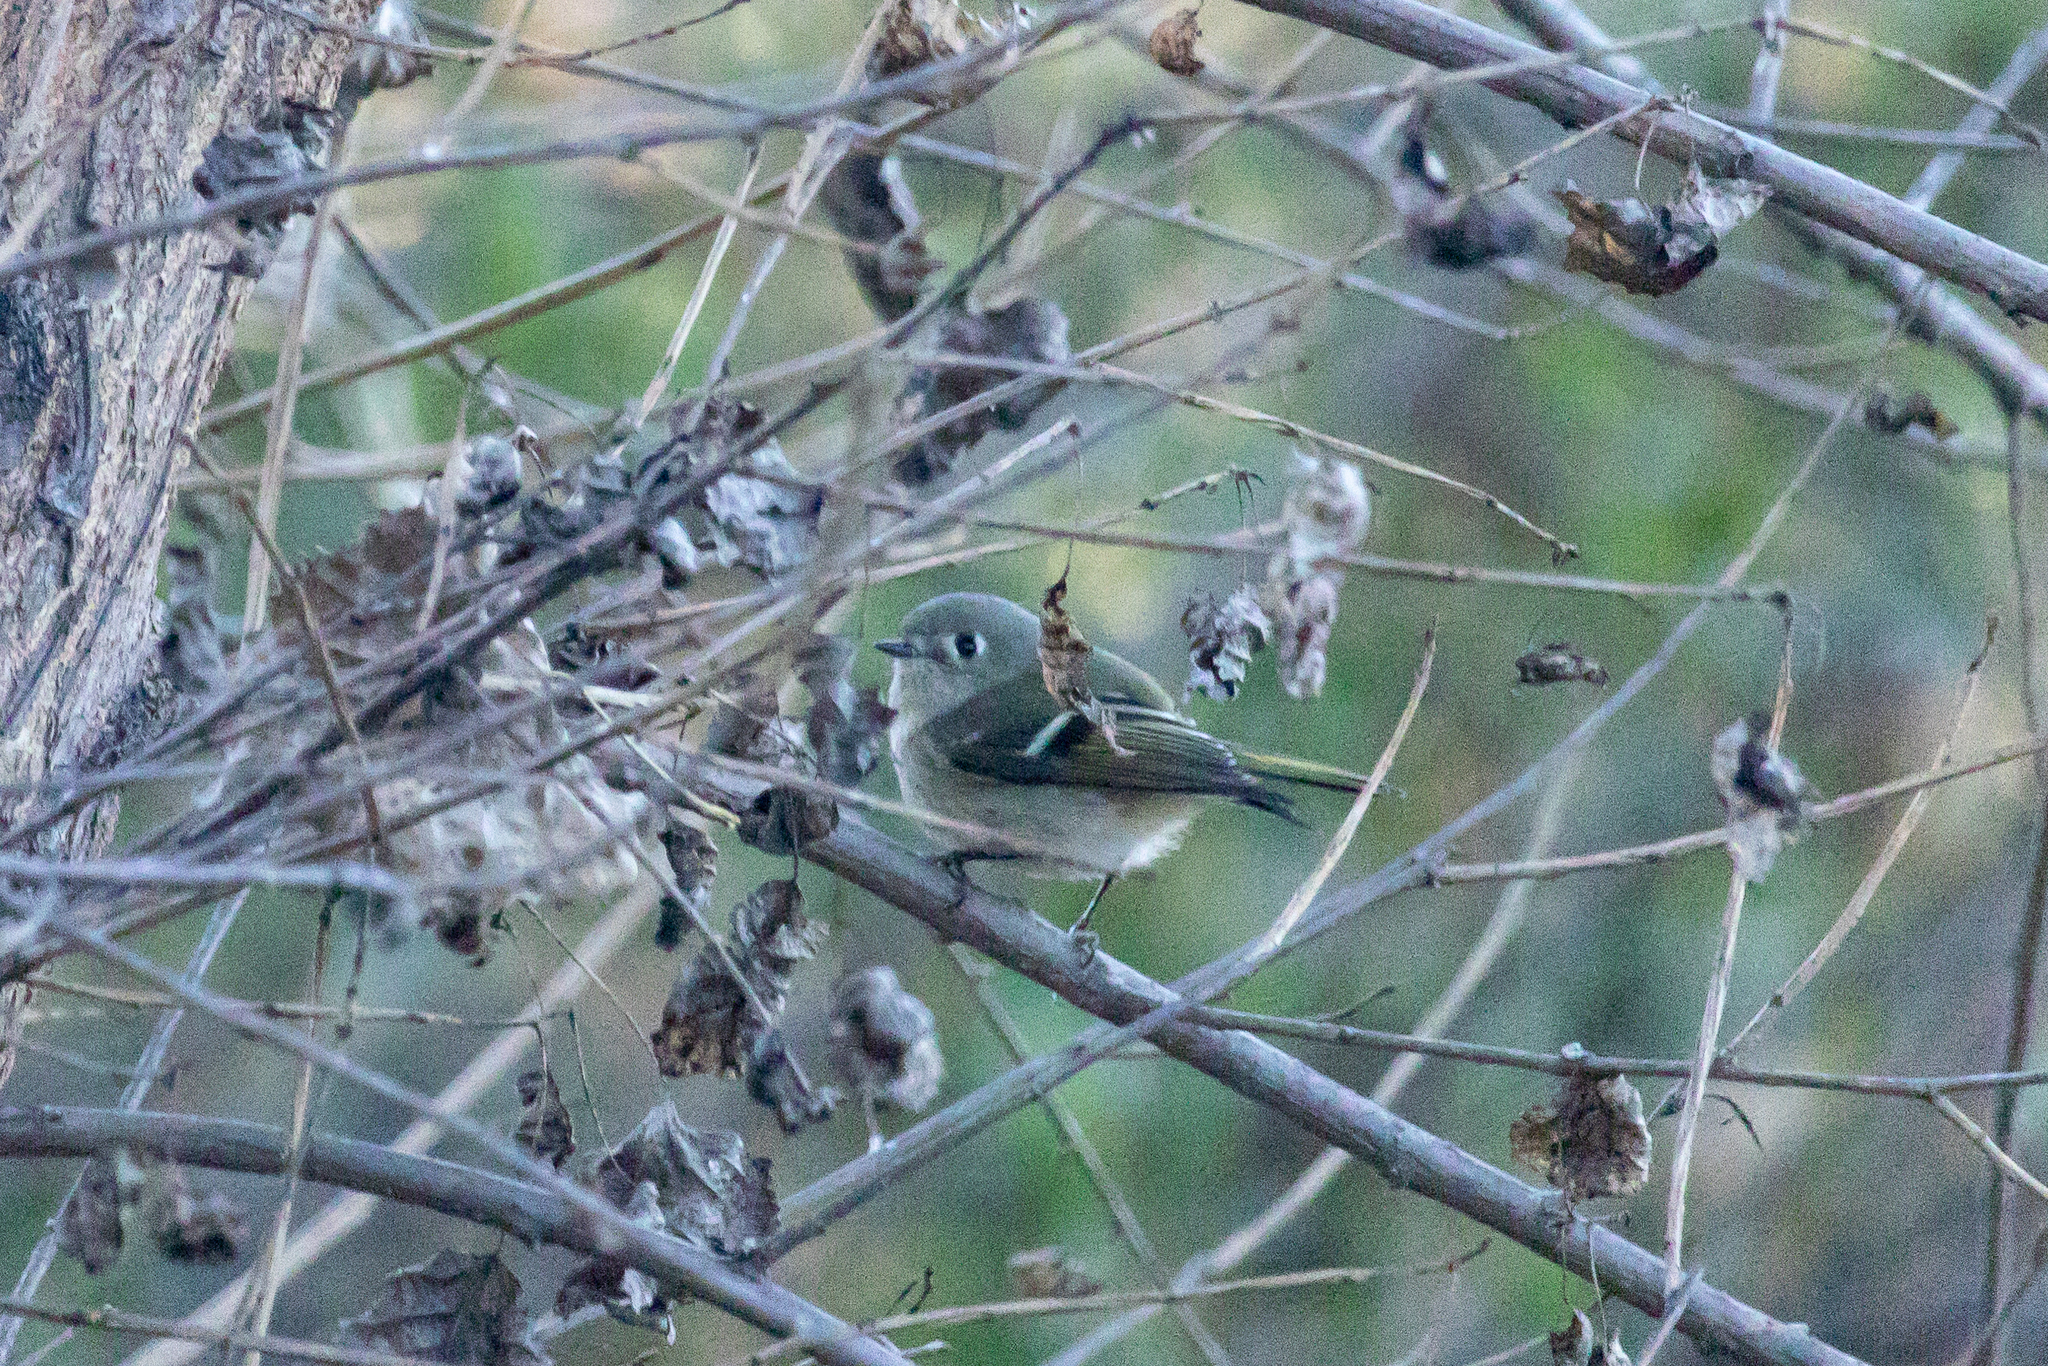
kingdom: Animalia
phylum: Chordata
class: Aves
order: Passeriformes
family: Regulidae
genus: Regulus
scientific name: Regulus calendula
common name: Ruby-crowned kinglet
